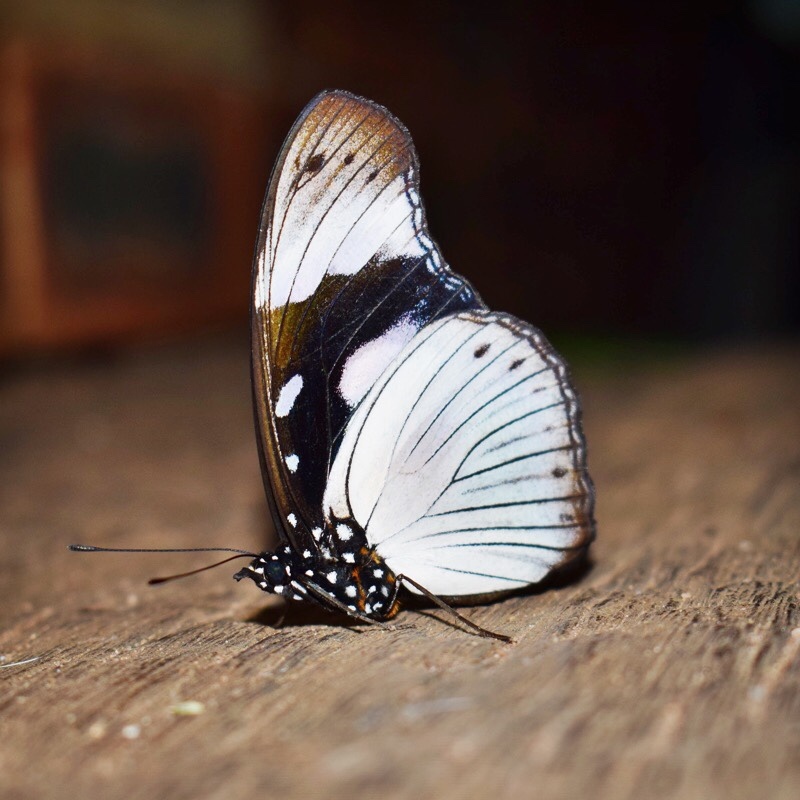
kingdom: Animalia
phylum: Arthropoda
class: Insecta
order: Lepidoptera
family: Nymphalidae
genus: Hypolimnas
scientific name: Hypolimnas dubius
